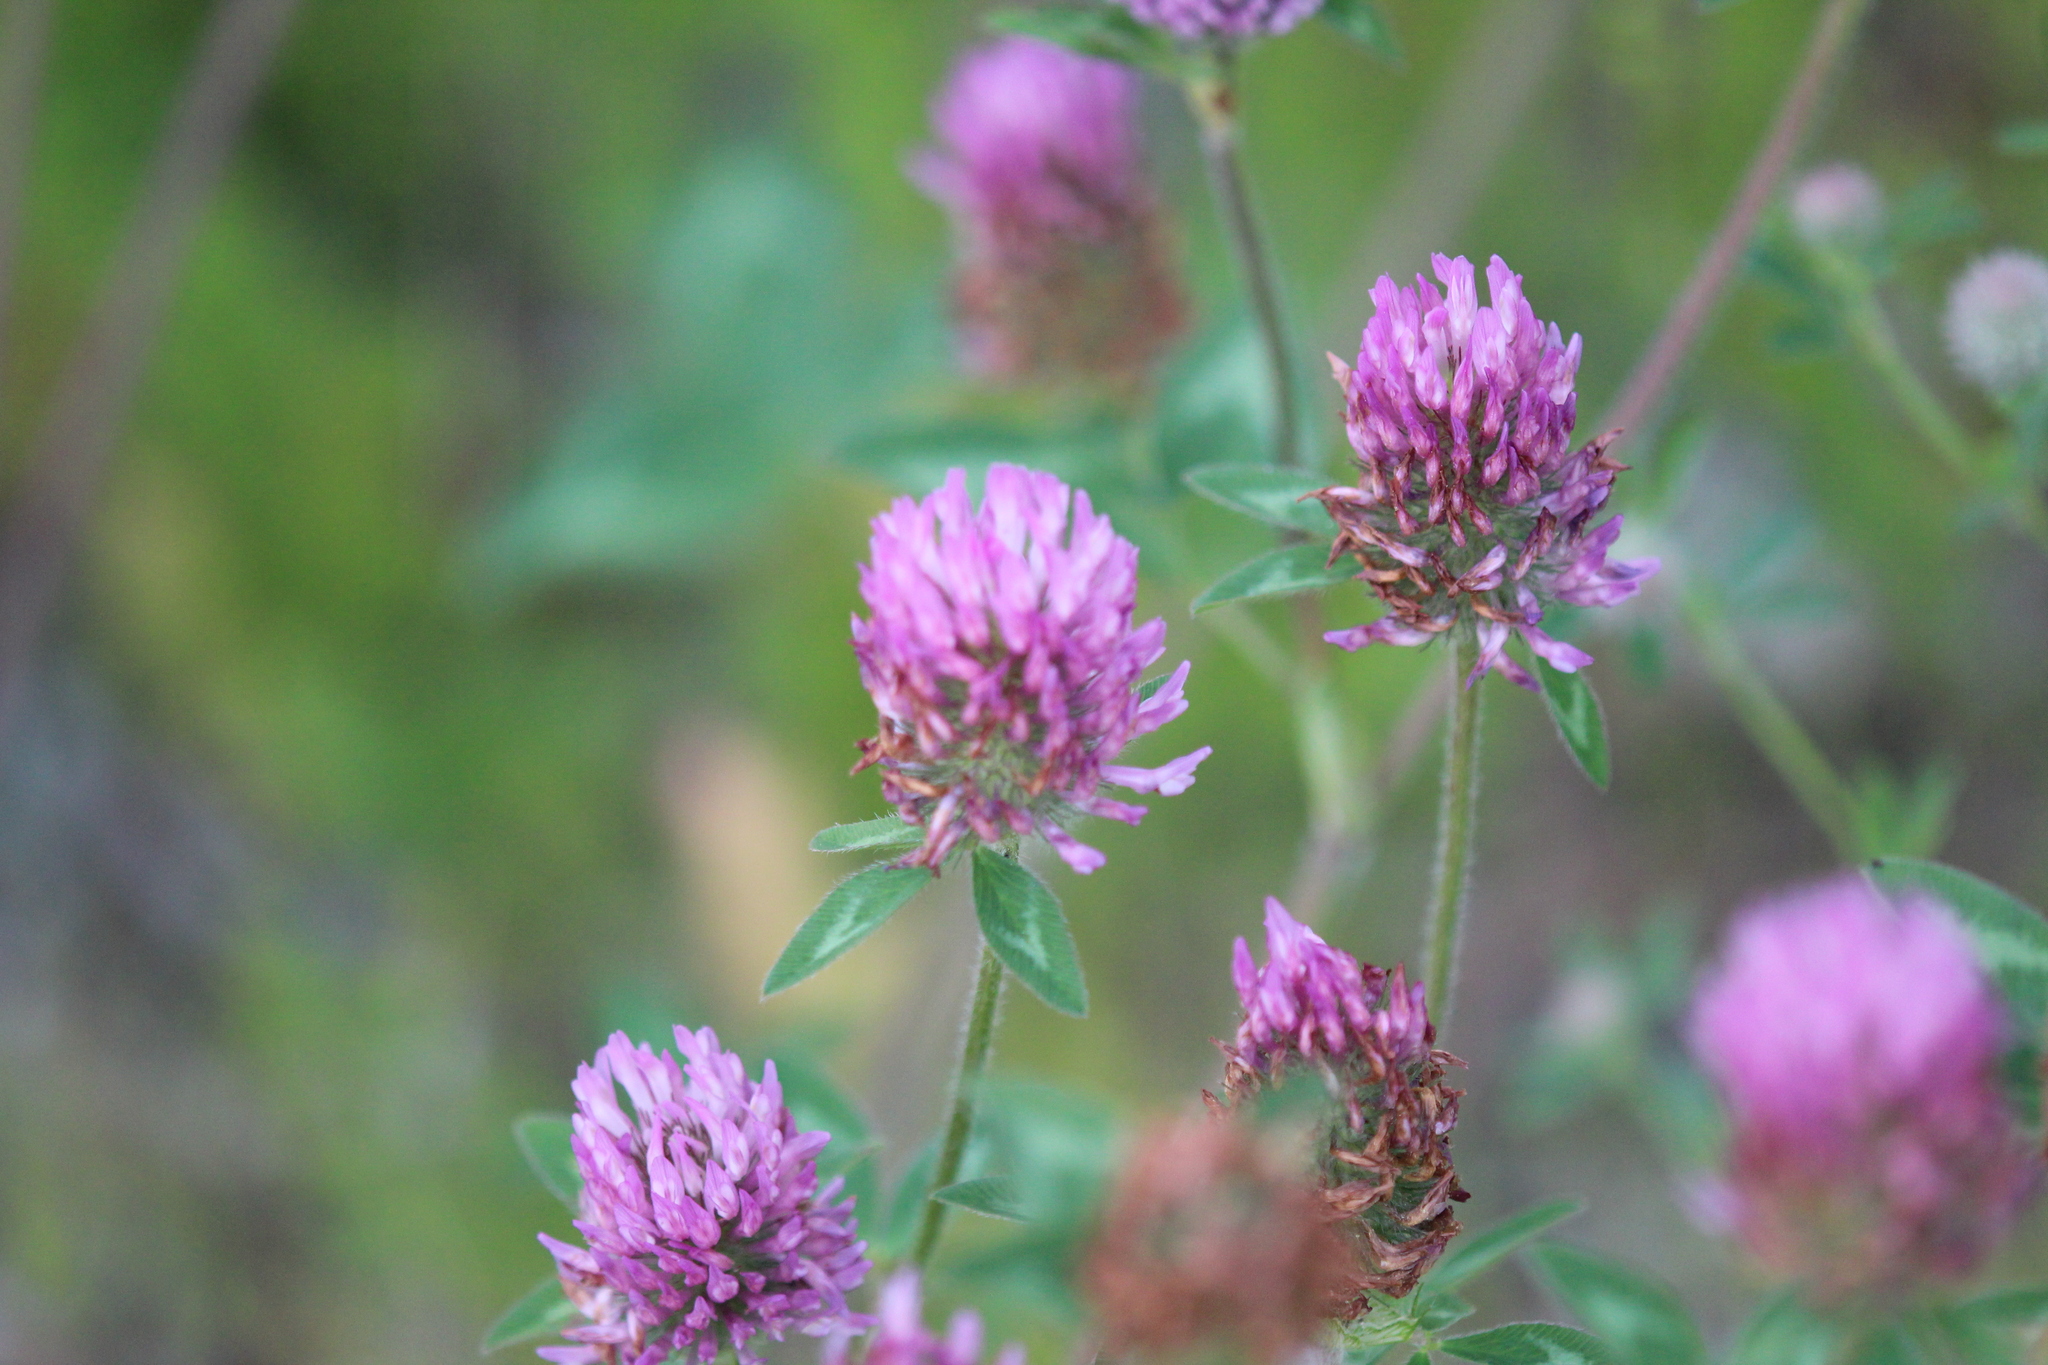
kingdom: Plantae
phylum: Tracheophyta
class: Magnoliopsida
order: Fabales
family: Fabaceae
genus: Trifolium
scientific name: Trifolium pratense
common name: Red clover
